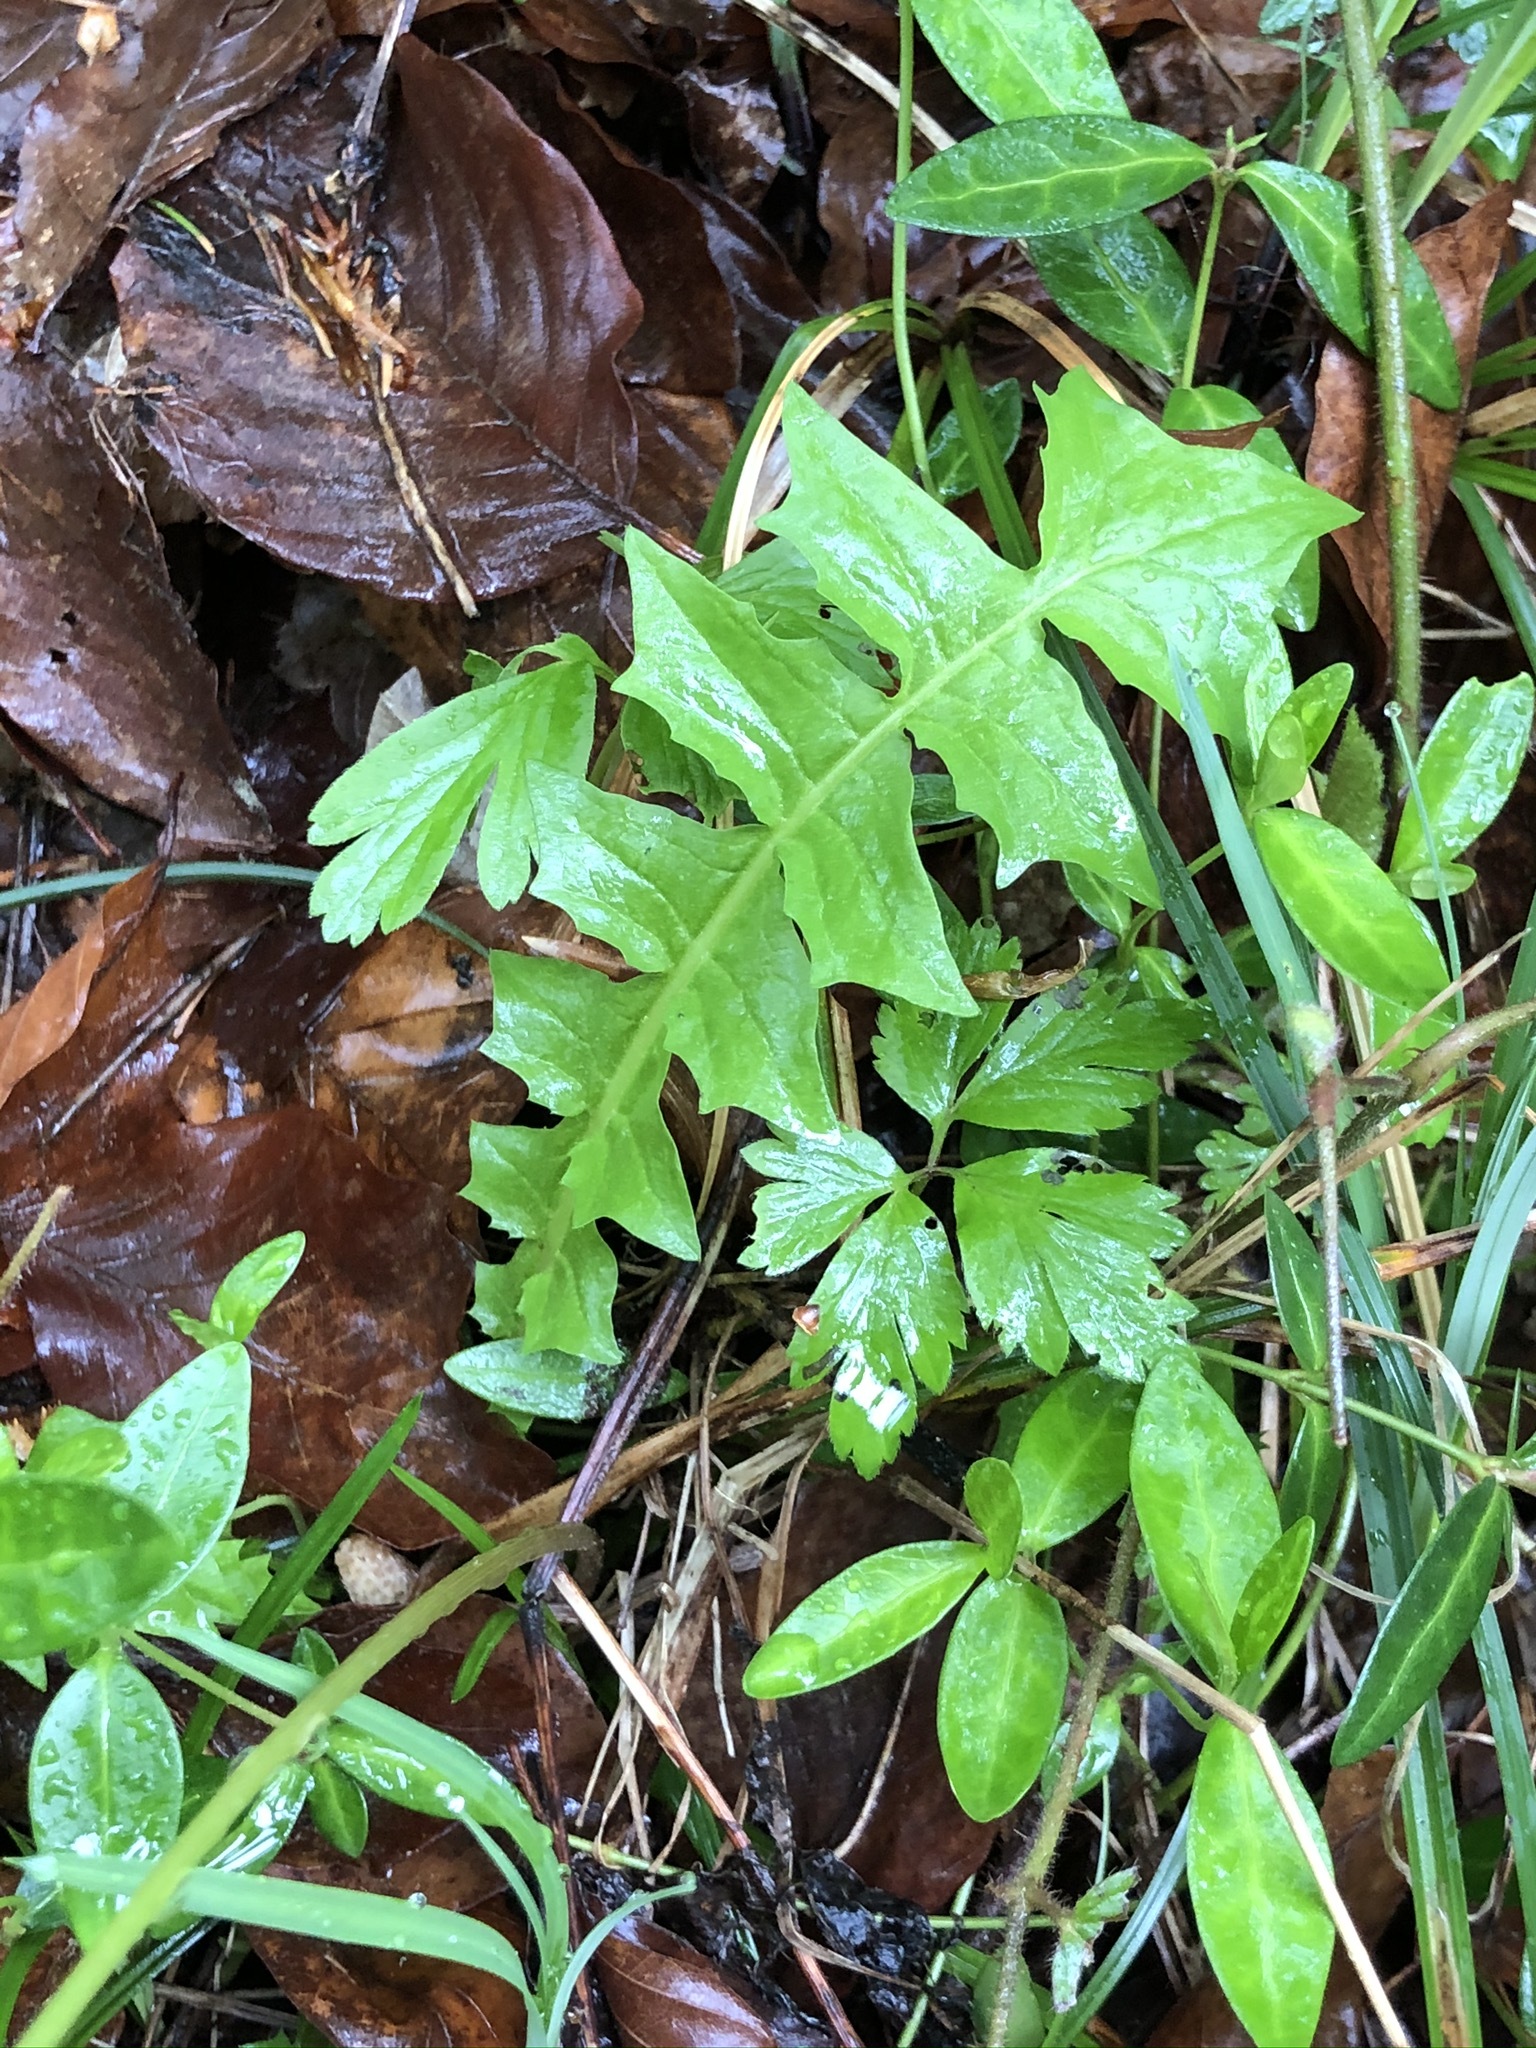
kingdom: Plantae
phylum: Tracheophyta
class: Magnoliopsida
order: Asterales
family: Asteraceae
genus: Aposeris
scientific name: Aposeris foetida
